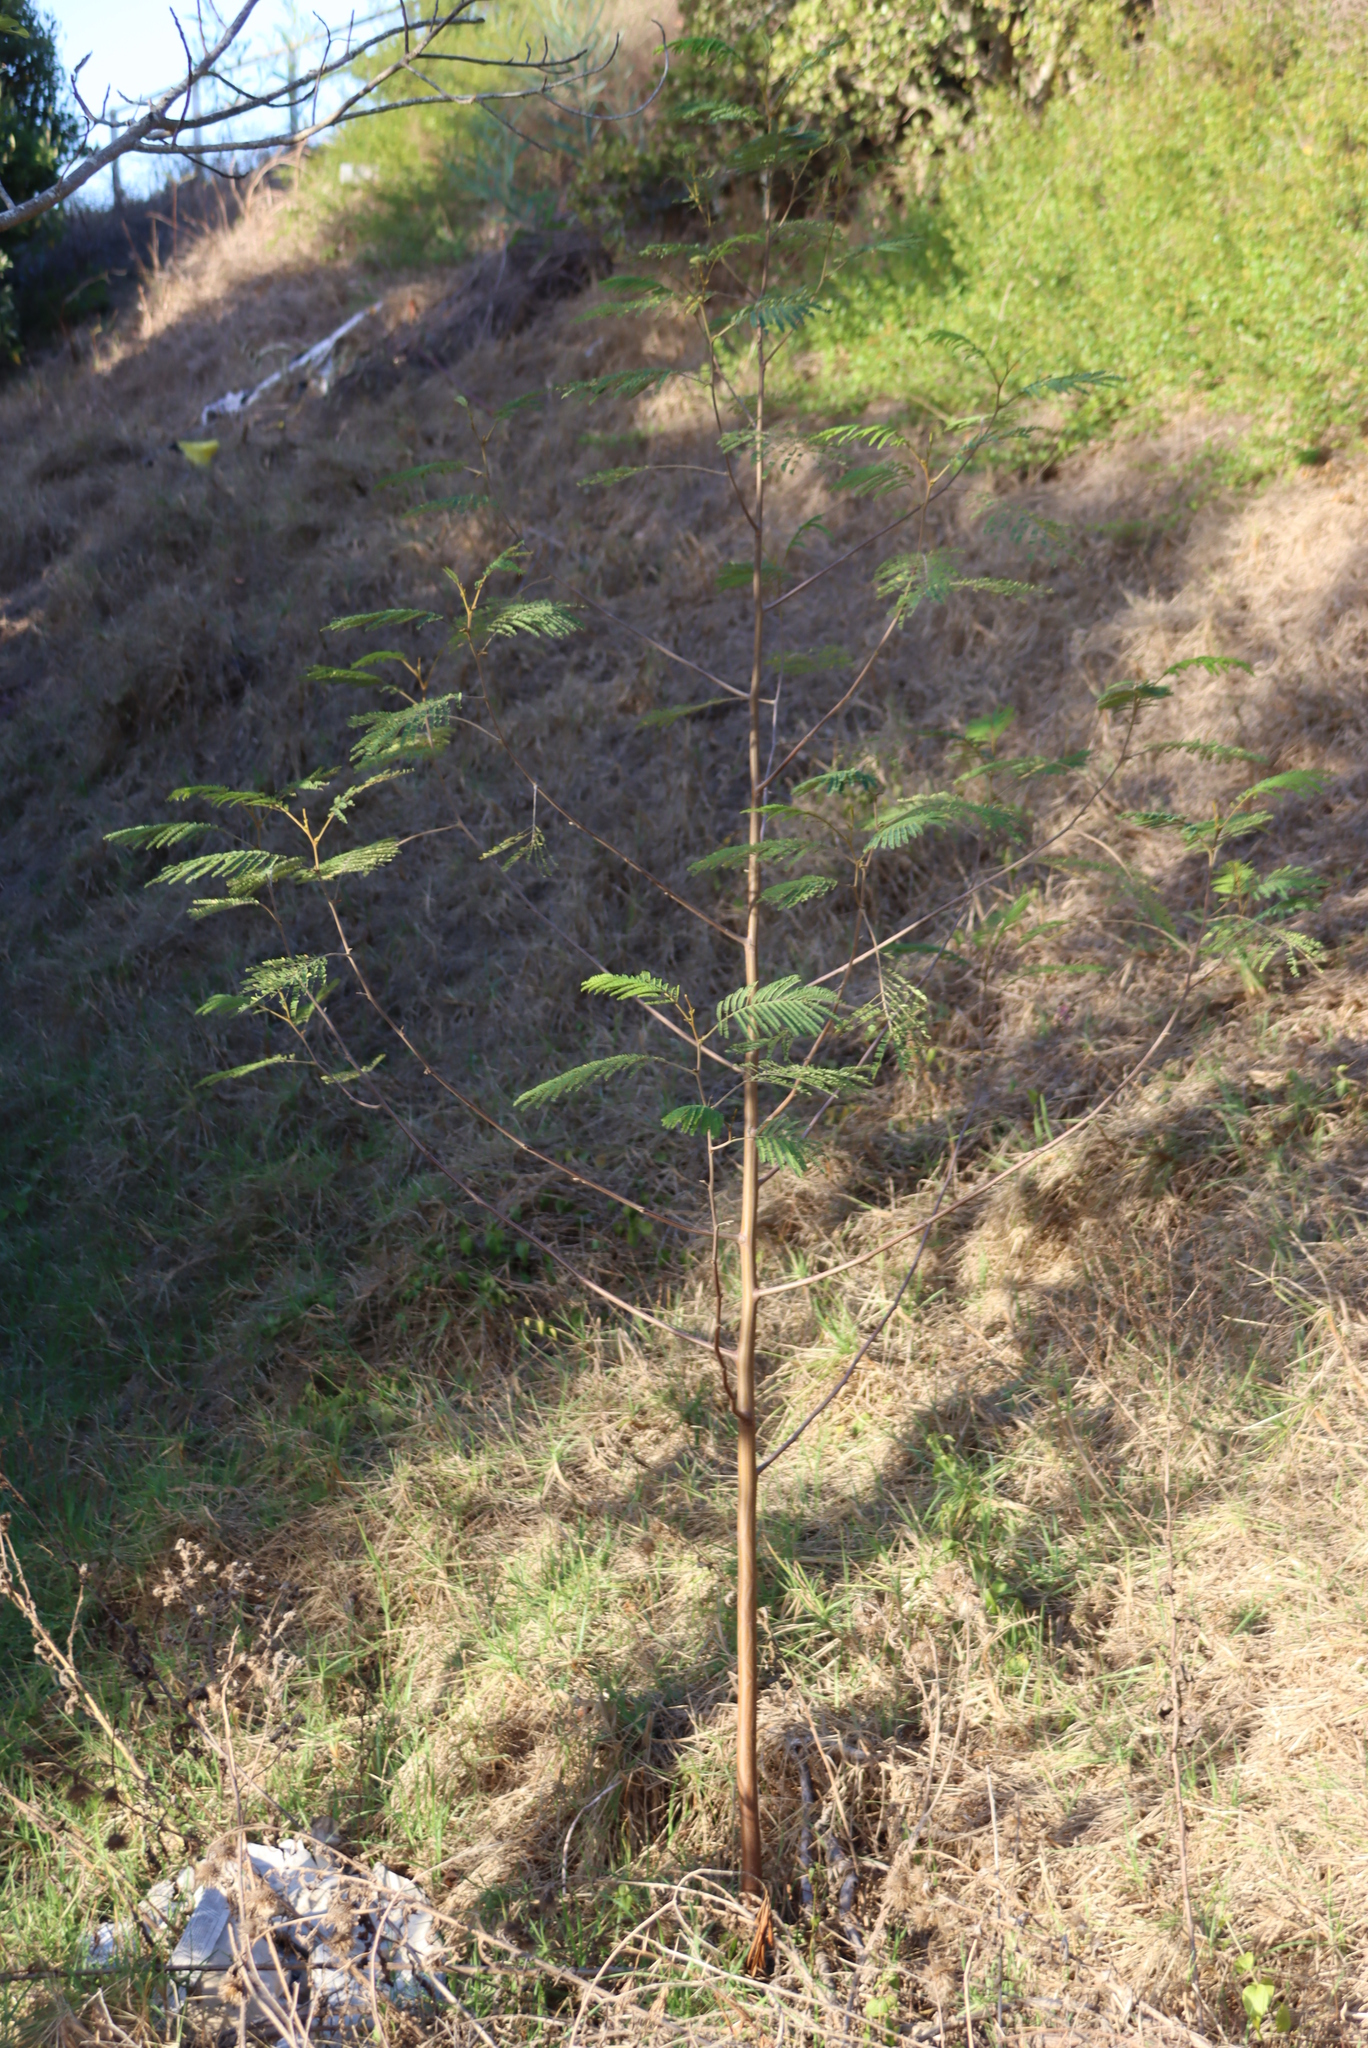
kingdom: Plantae
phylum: Tracheophyta
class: Magnoliopsida
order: Fabales
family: Fabaceae
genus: Paraserianthes
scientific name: Paraserianthes lophantha
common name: Plume albizia
